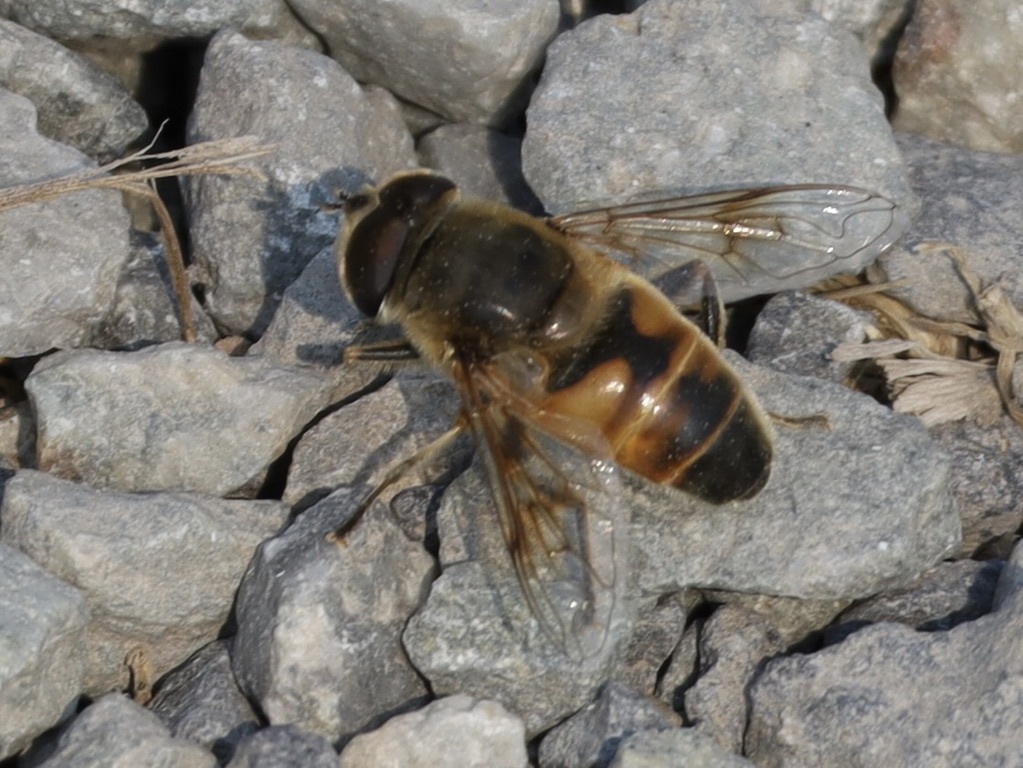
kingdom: Animalia
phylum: Arthropoda
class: Insecta
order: Diptera
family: Syrphidae
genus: Eristalis
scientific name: Eristalis tenax
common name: Drone fly
